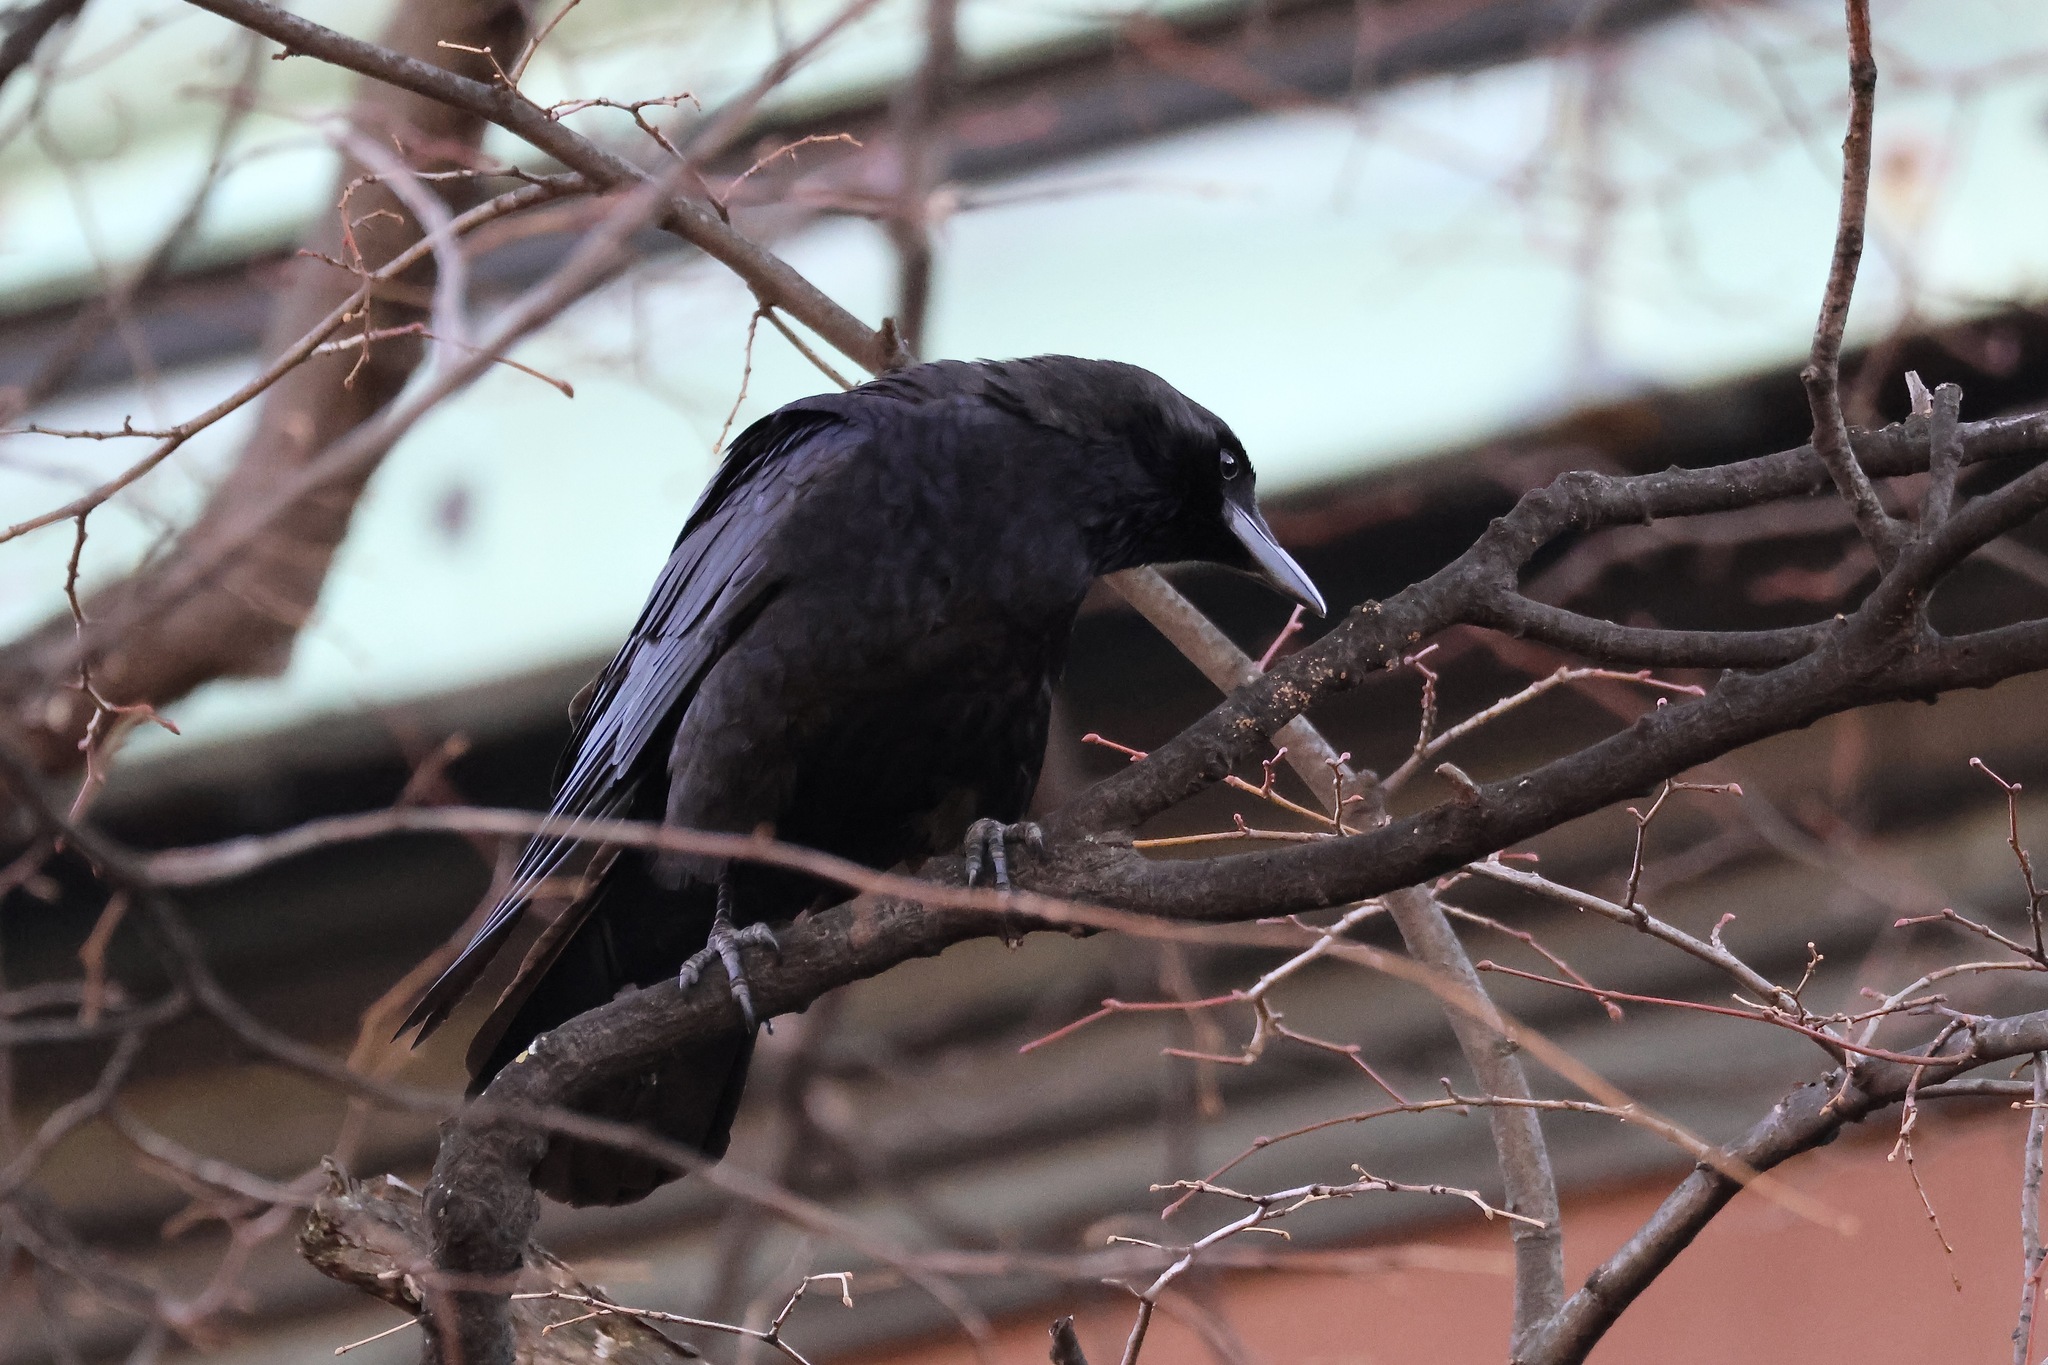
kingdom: Animalia
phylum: Chordata
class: Aves
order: Passeriformes
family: Corvidae
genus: Corvus
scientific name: Corvus brachyrhynchos
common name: American crow
